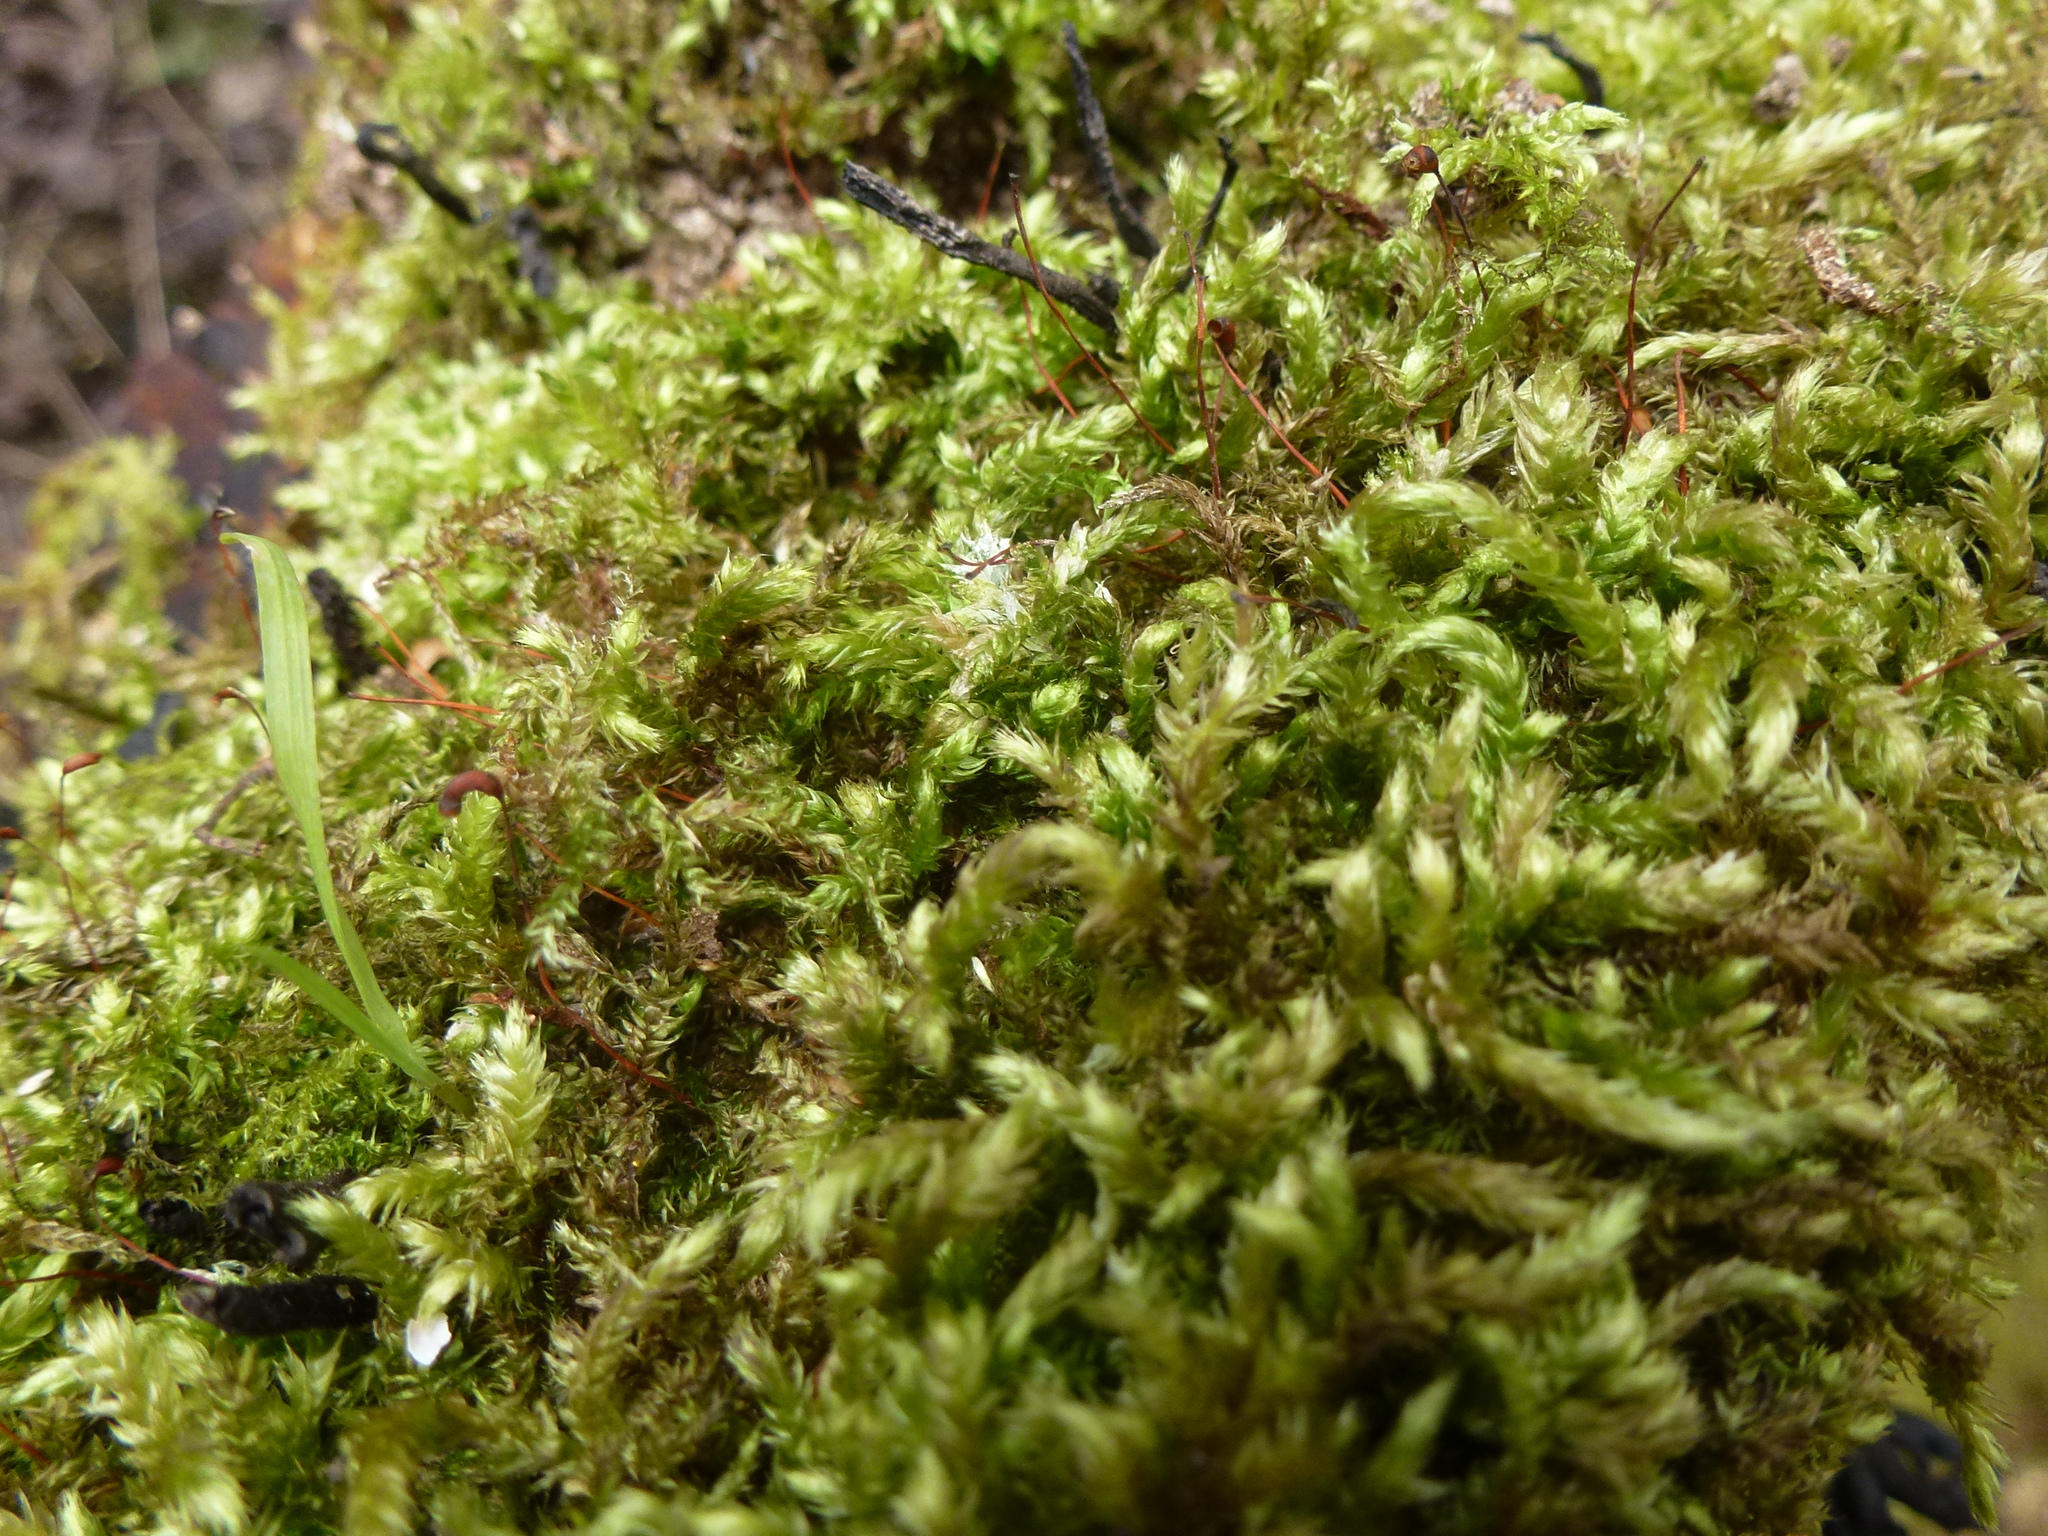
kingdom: Plantae
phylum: Bryophyta
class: Bryopsida
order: Hypnales
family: Brachytheciaceae
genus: Brachythecium
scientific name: Brachythecium rutabulum
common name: Rough-stalked feather-moss
